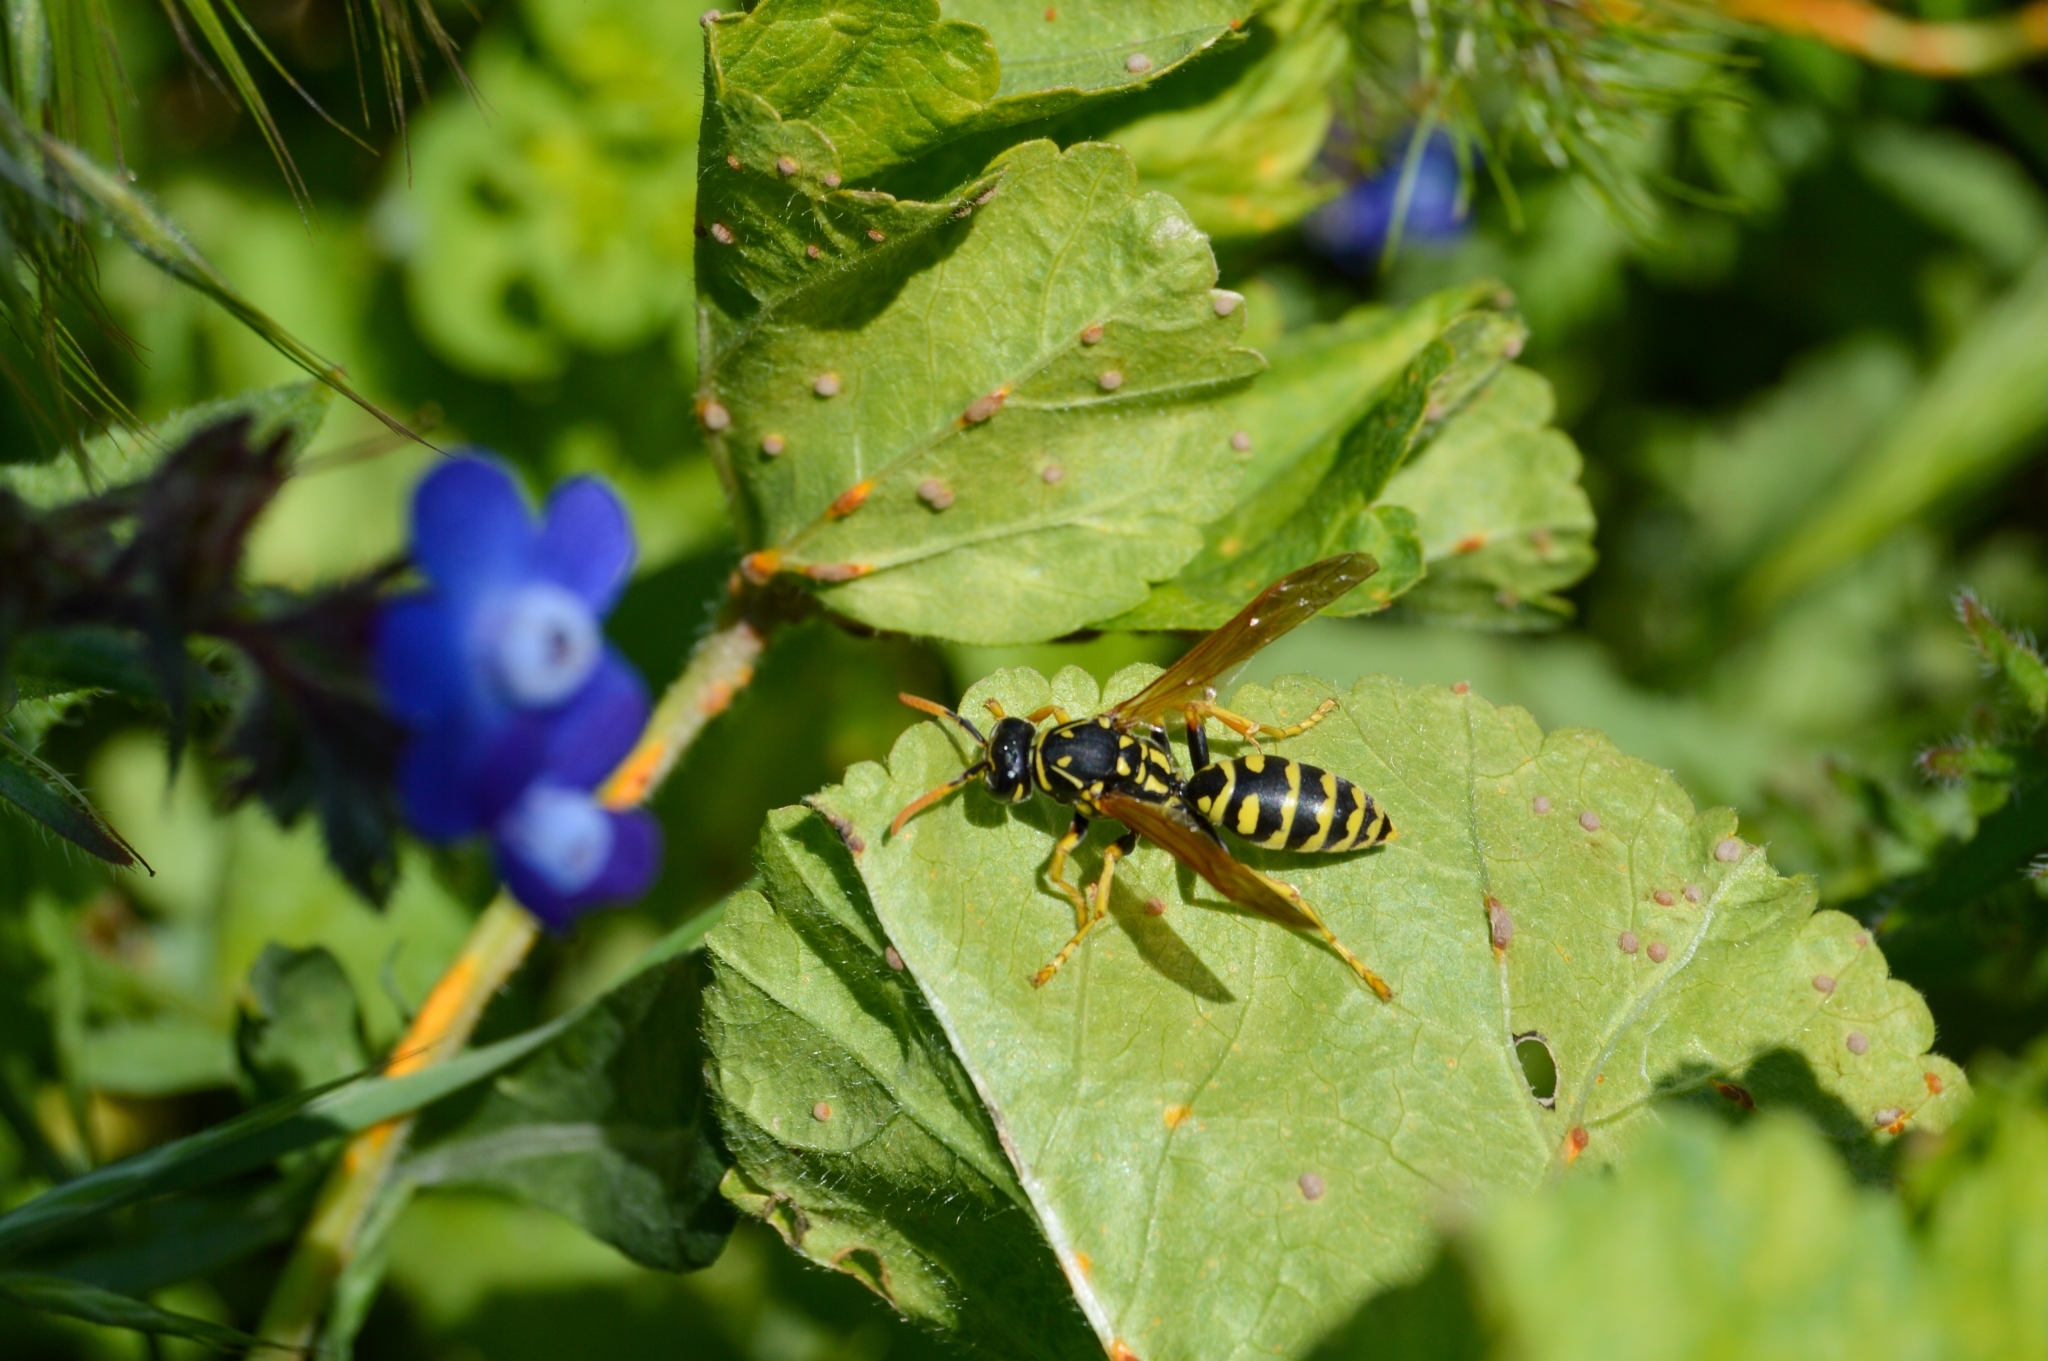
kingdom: Animalia
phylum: Arthropoda
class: Insecta
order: Hymenoptera
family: Eumenidae
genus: Polistes
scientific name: Polistes dominula
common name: Paper wasp
